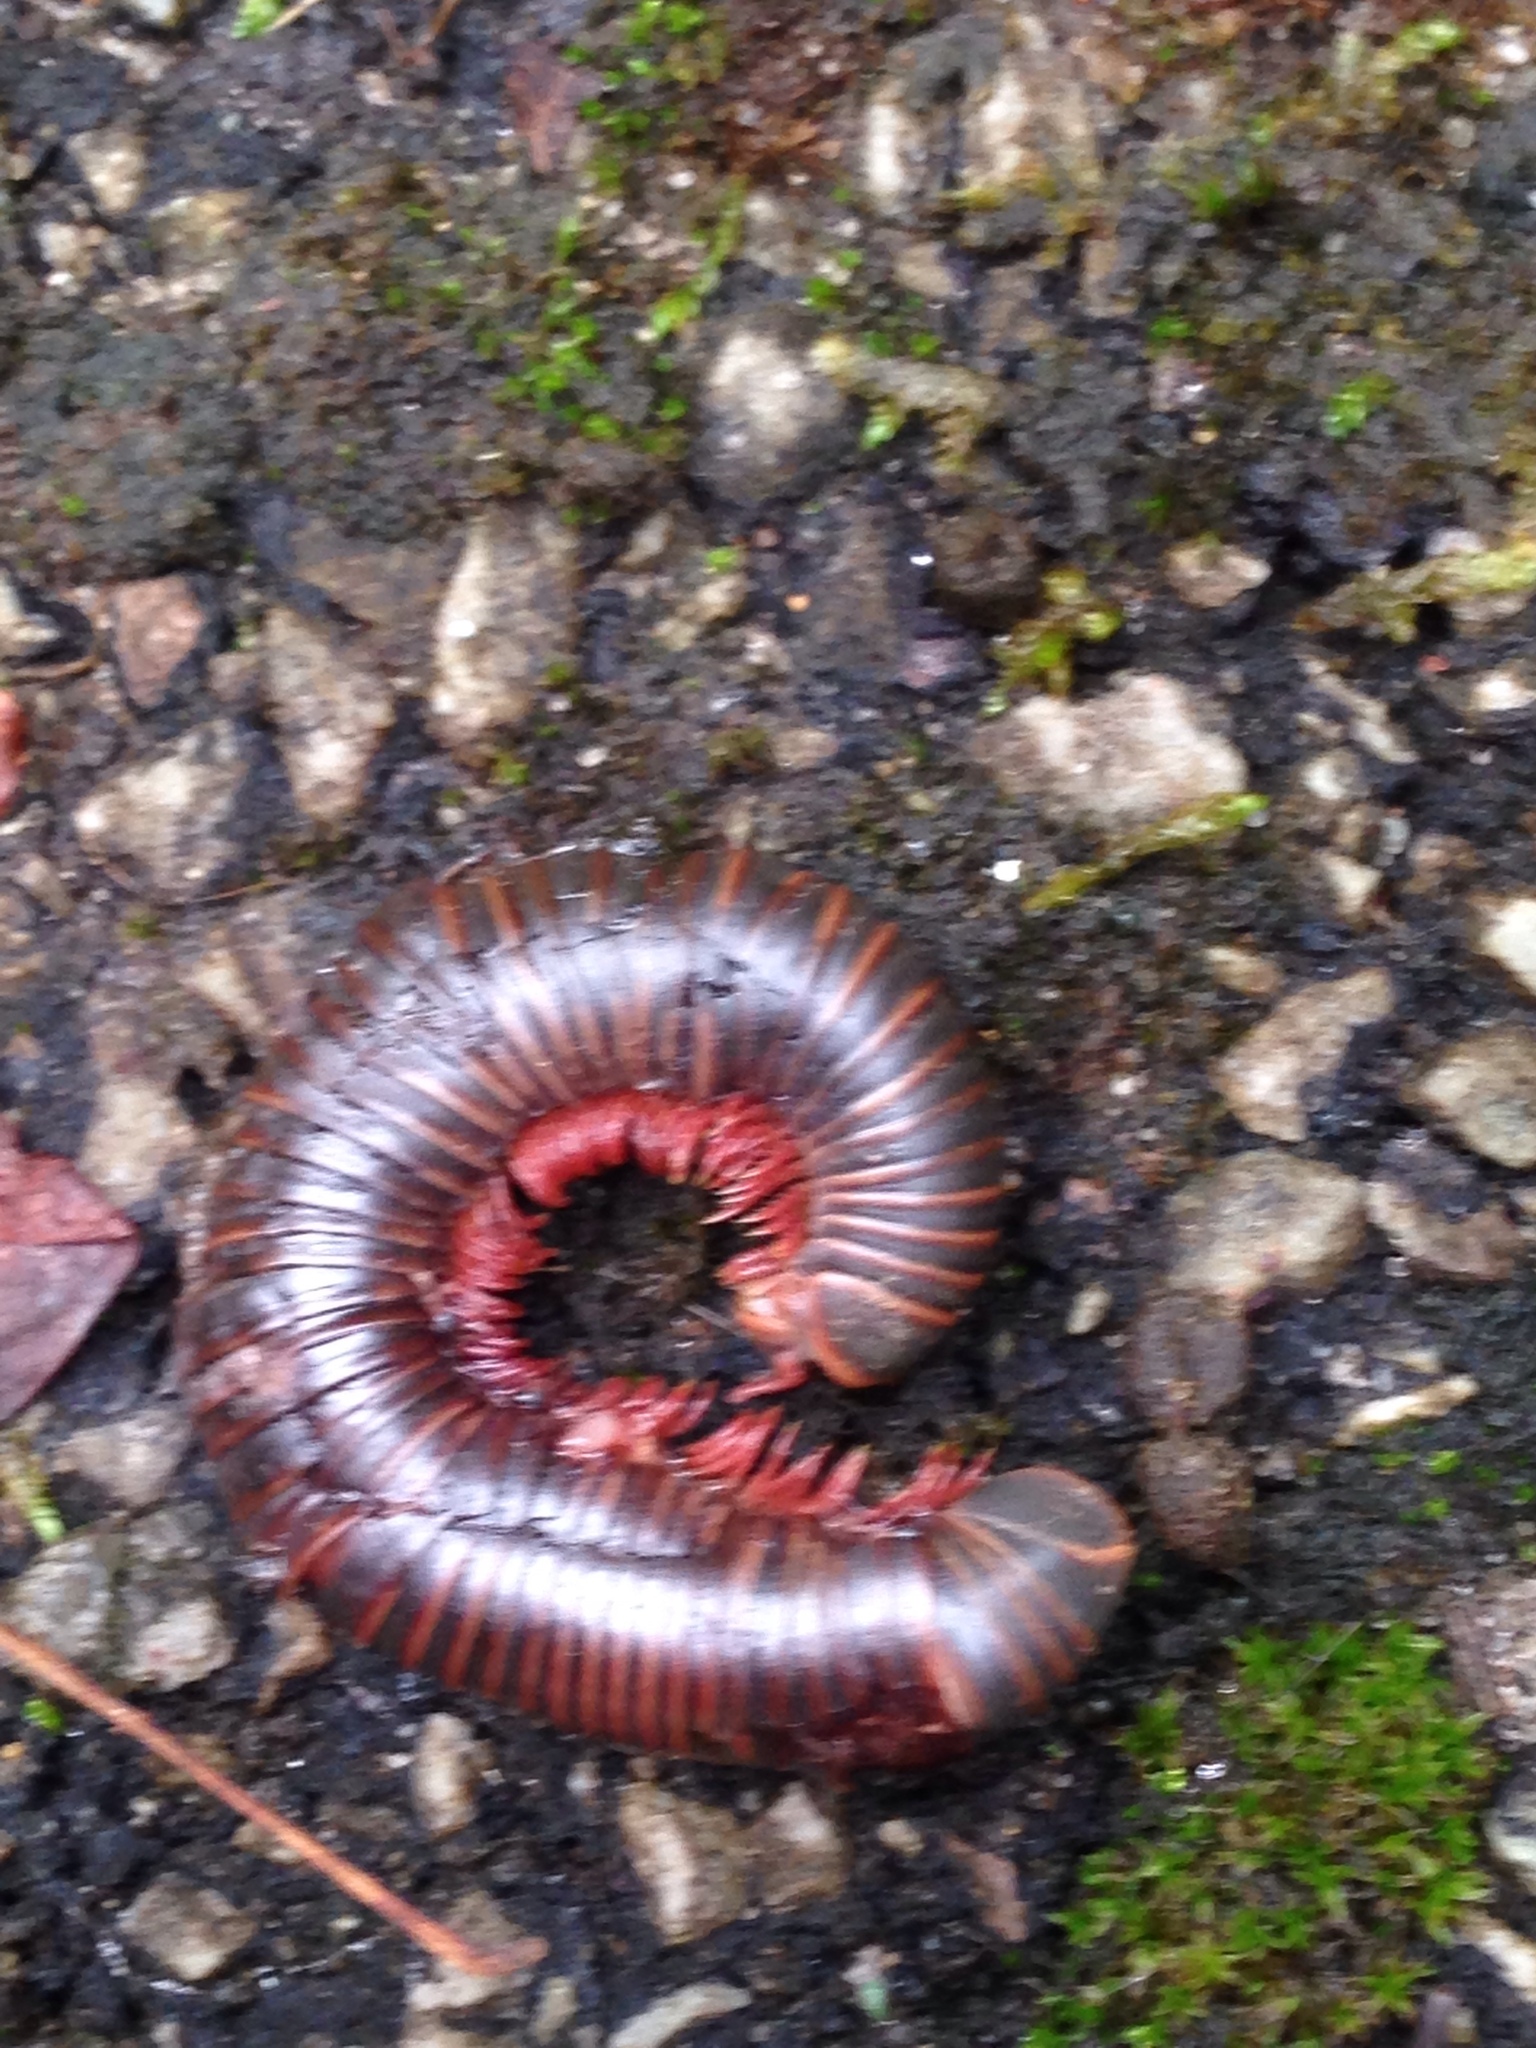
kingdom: Animalia
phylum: Arthropoda
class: Diplopoda
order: Spirobolida
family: Spirobolidae
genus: Narceus
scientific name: Narceus
